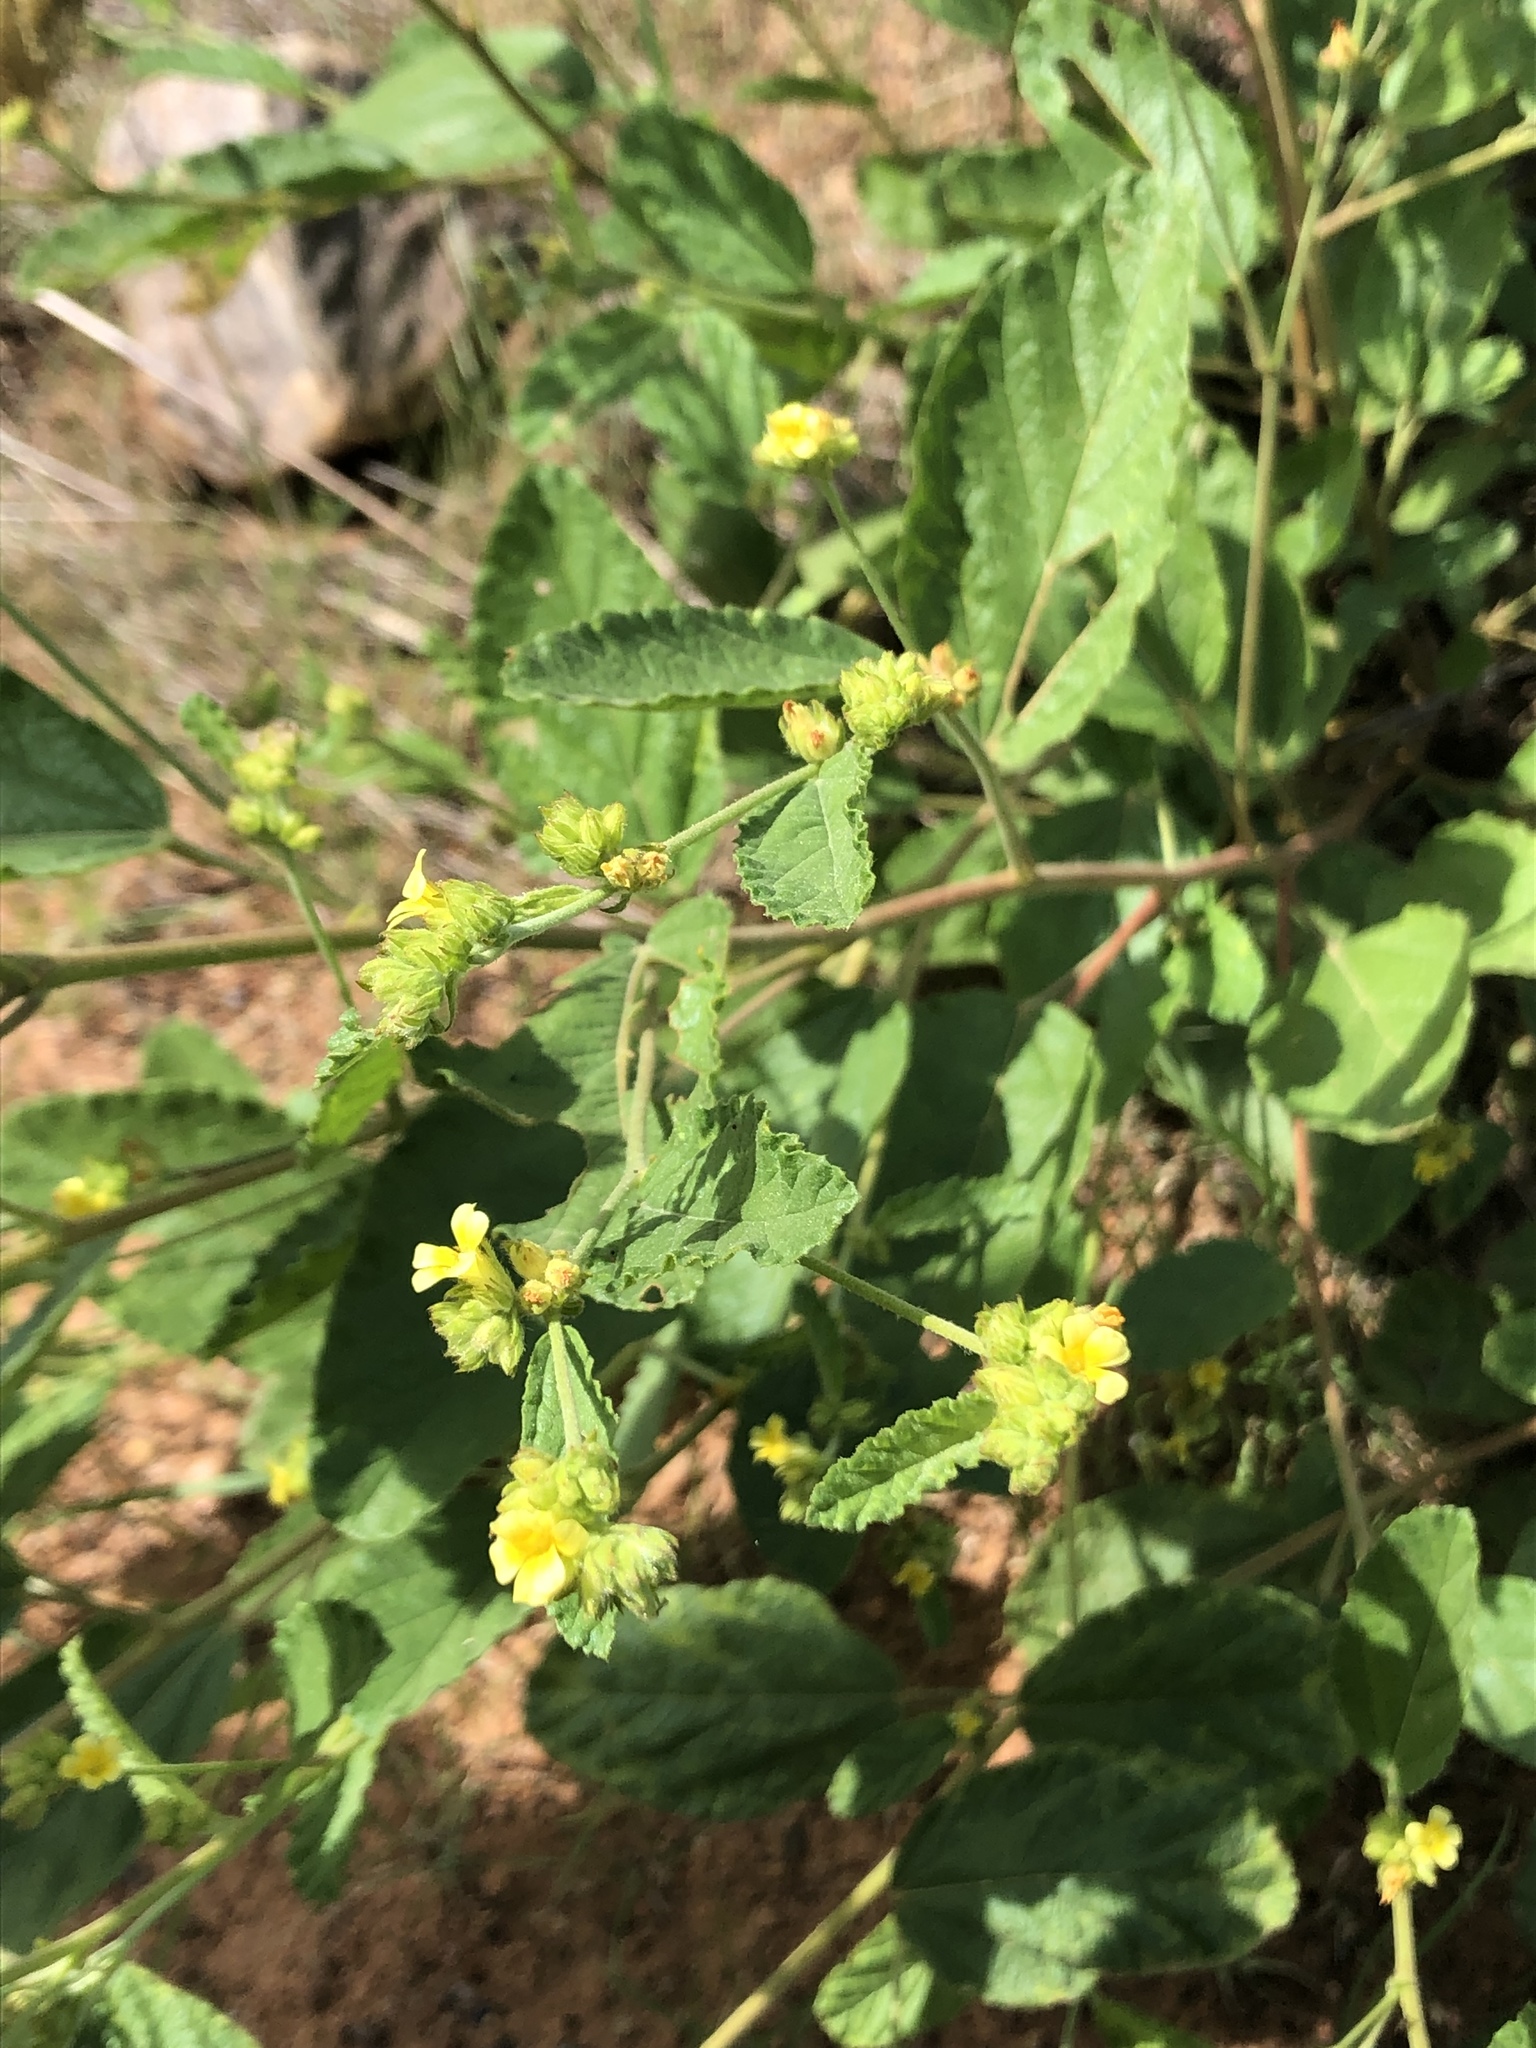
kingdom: Plantae
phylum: Tracheophyta
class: Magnoliopsida
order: Malvales
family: Malvaceae
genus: Waltheria
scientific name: Waltheria indica
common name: Leather-coat
